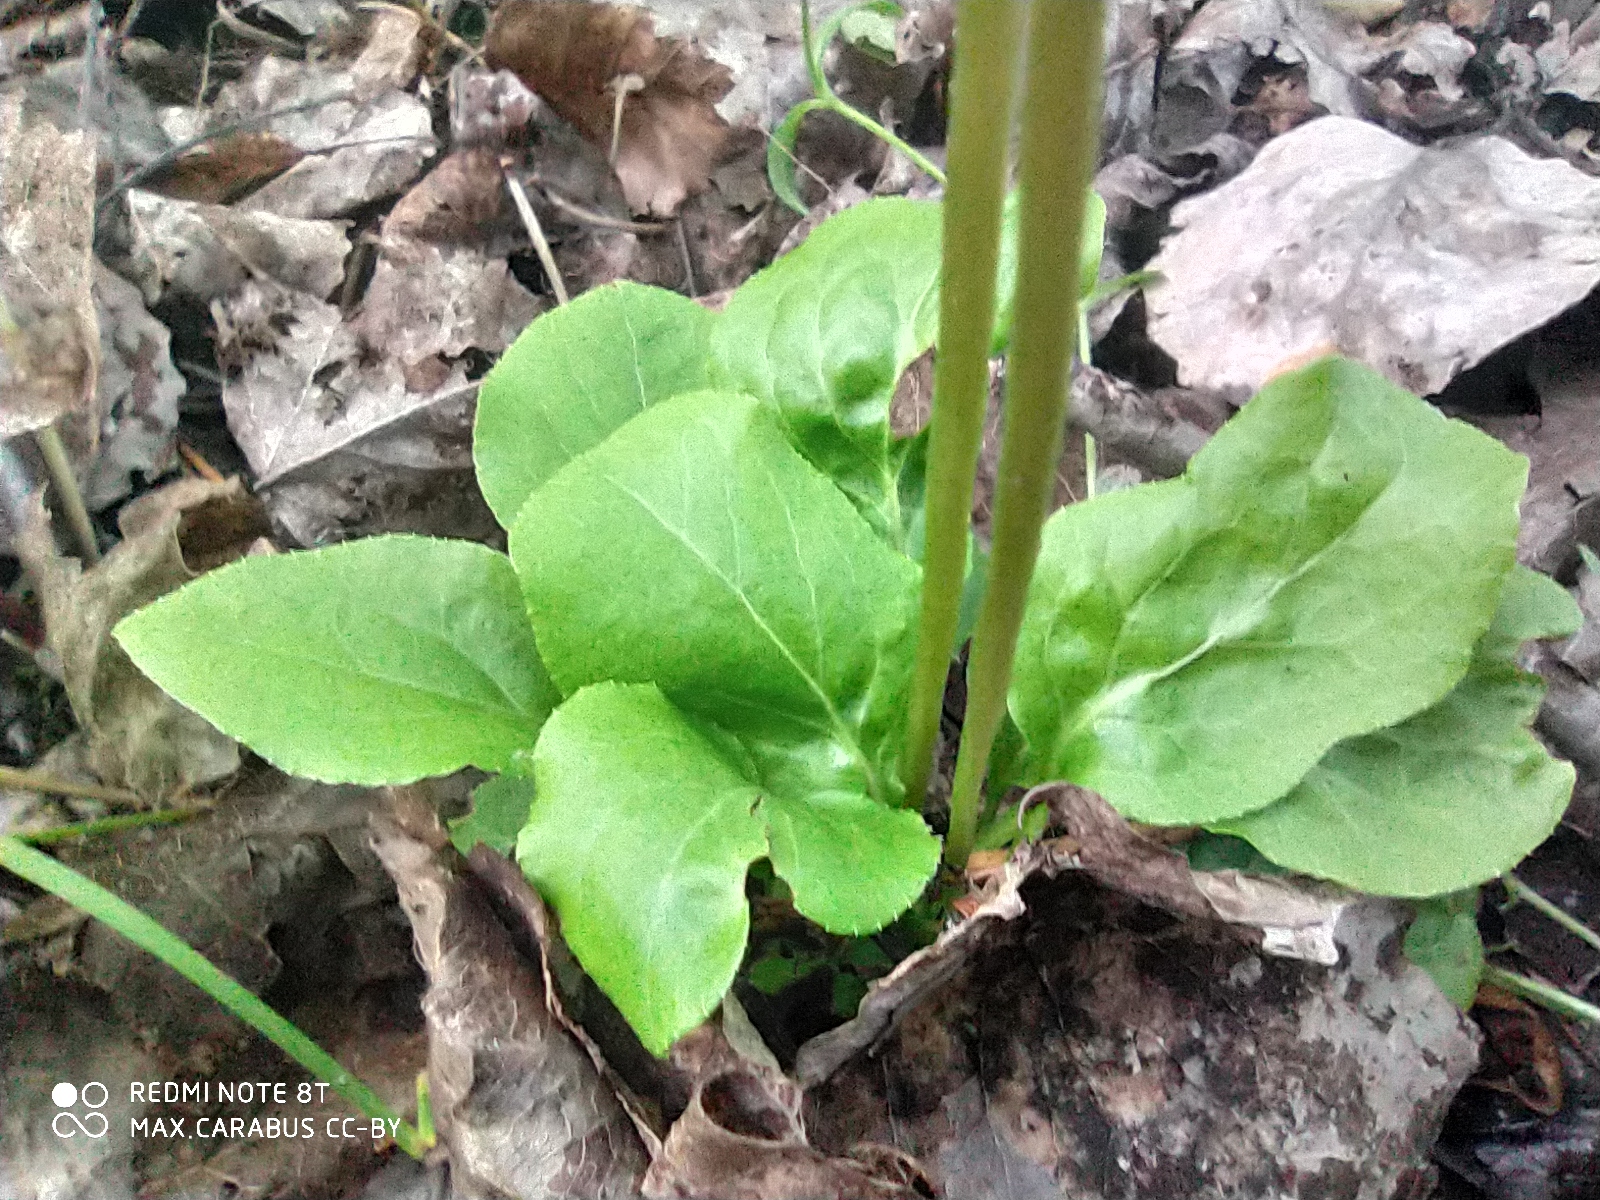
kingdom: Plantae
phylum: Tracheophyta
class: Magnoliopsida
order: Ericales
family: Ericaceae
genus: Pyrola
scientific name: Pyrola minor
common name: Common wintergreen
